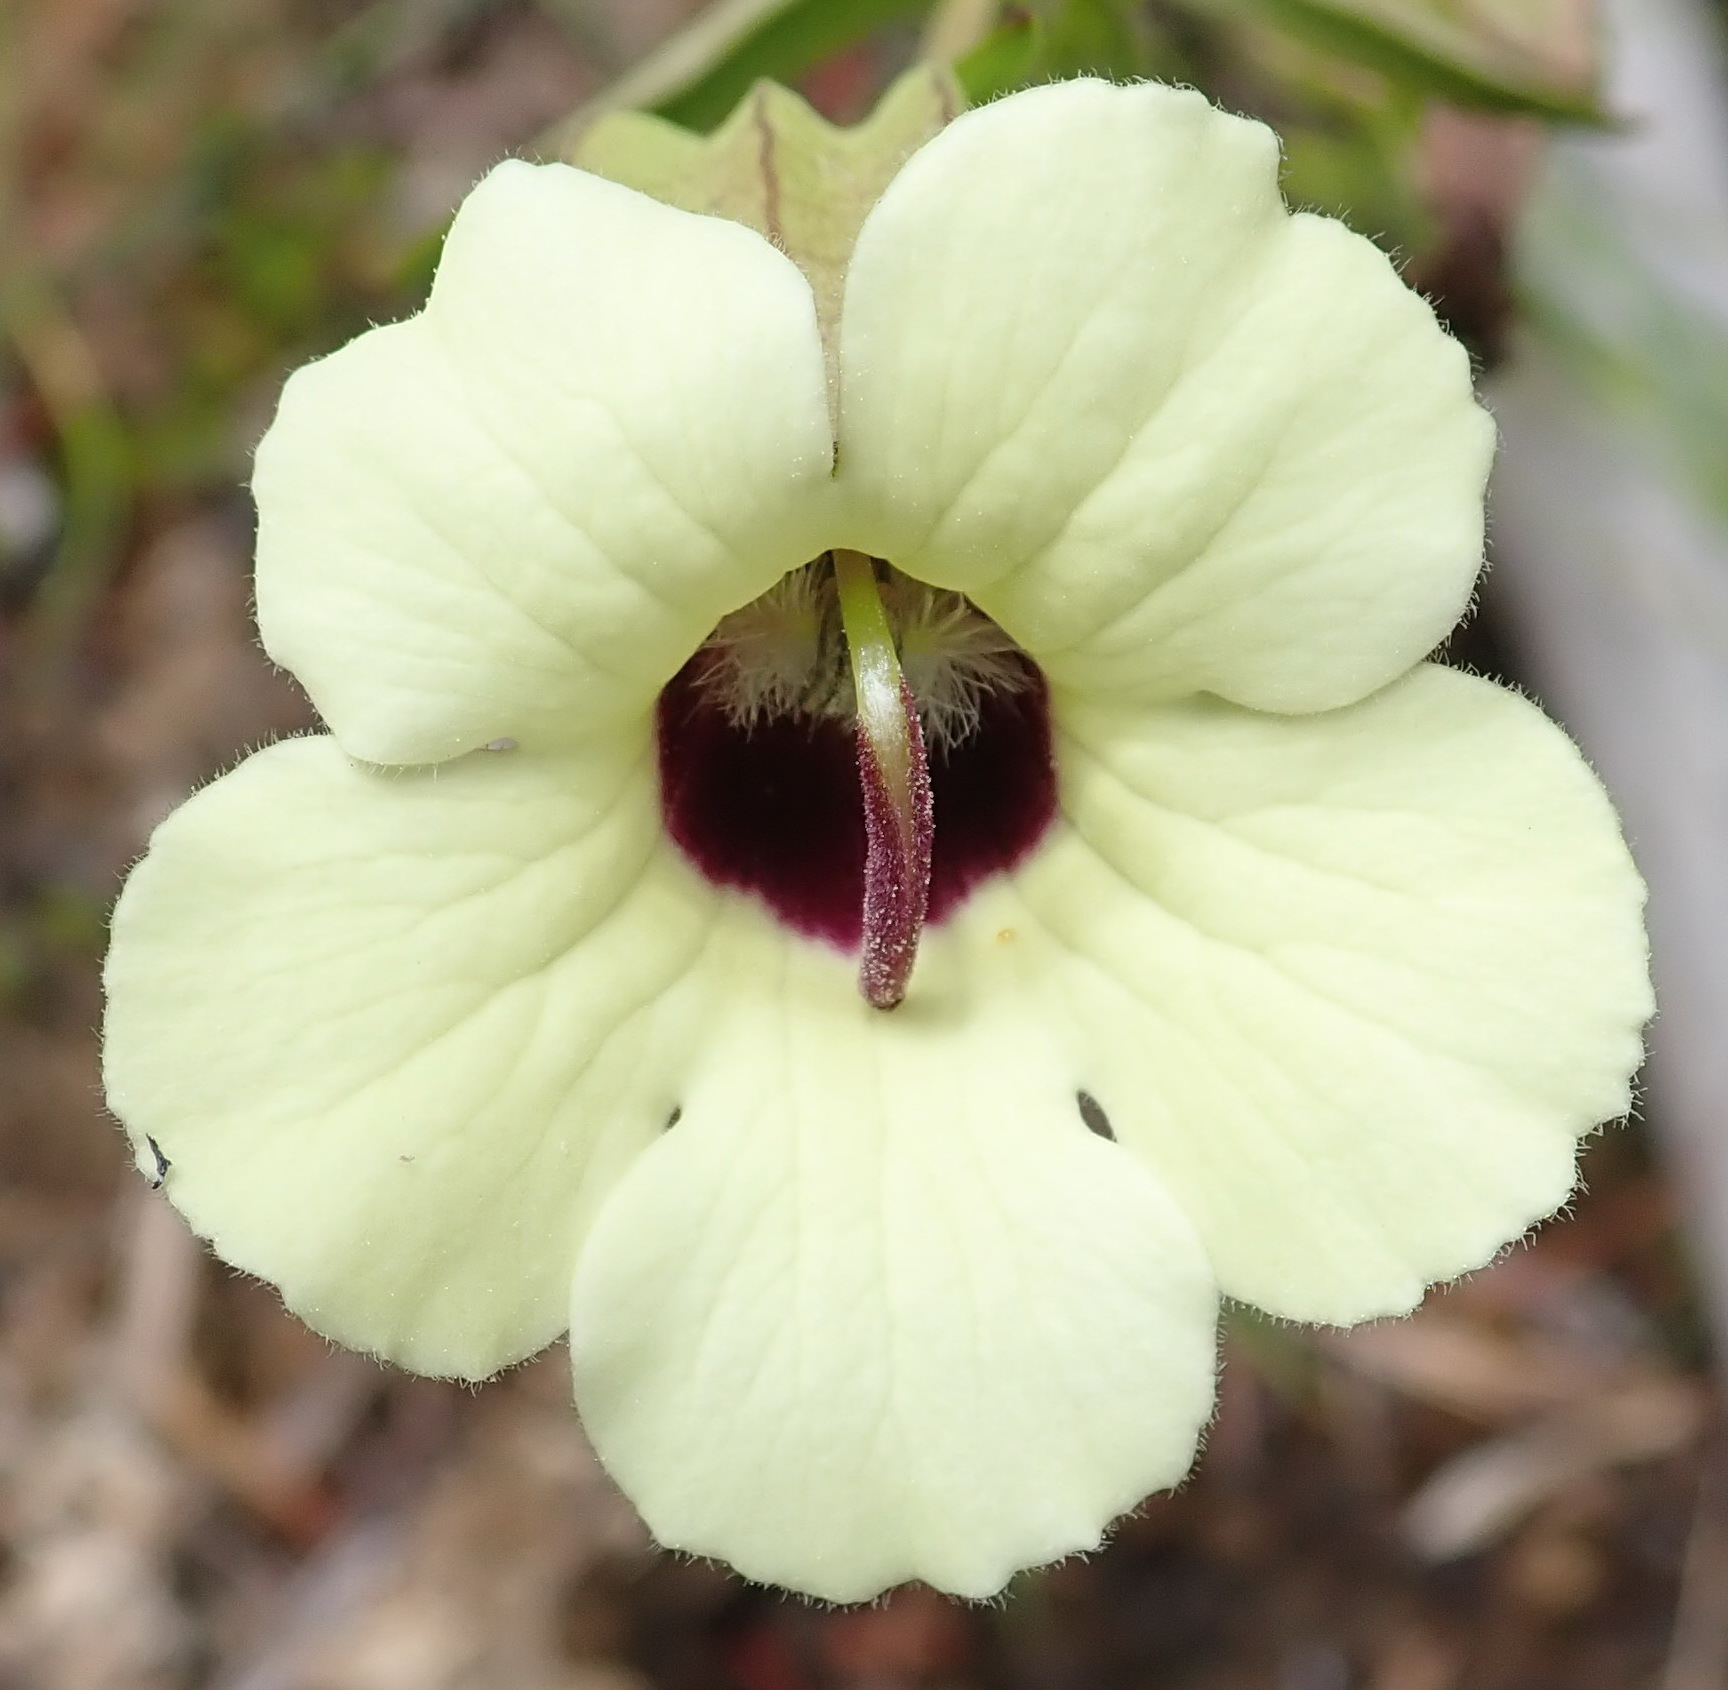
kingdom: Plantae
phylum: Tracheophyta
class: Magnoliopsida
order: Lamiales
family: Orobanchaceae
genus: Melasma
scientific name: Melasma scabrum
